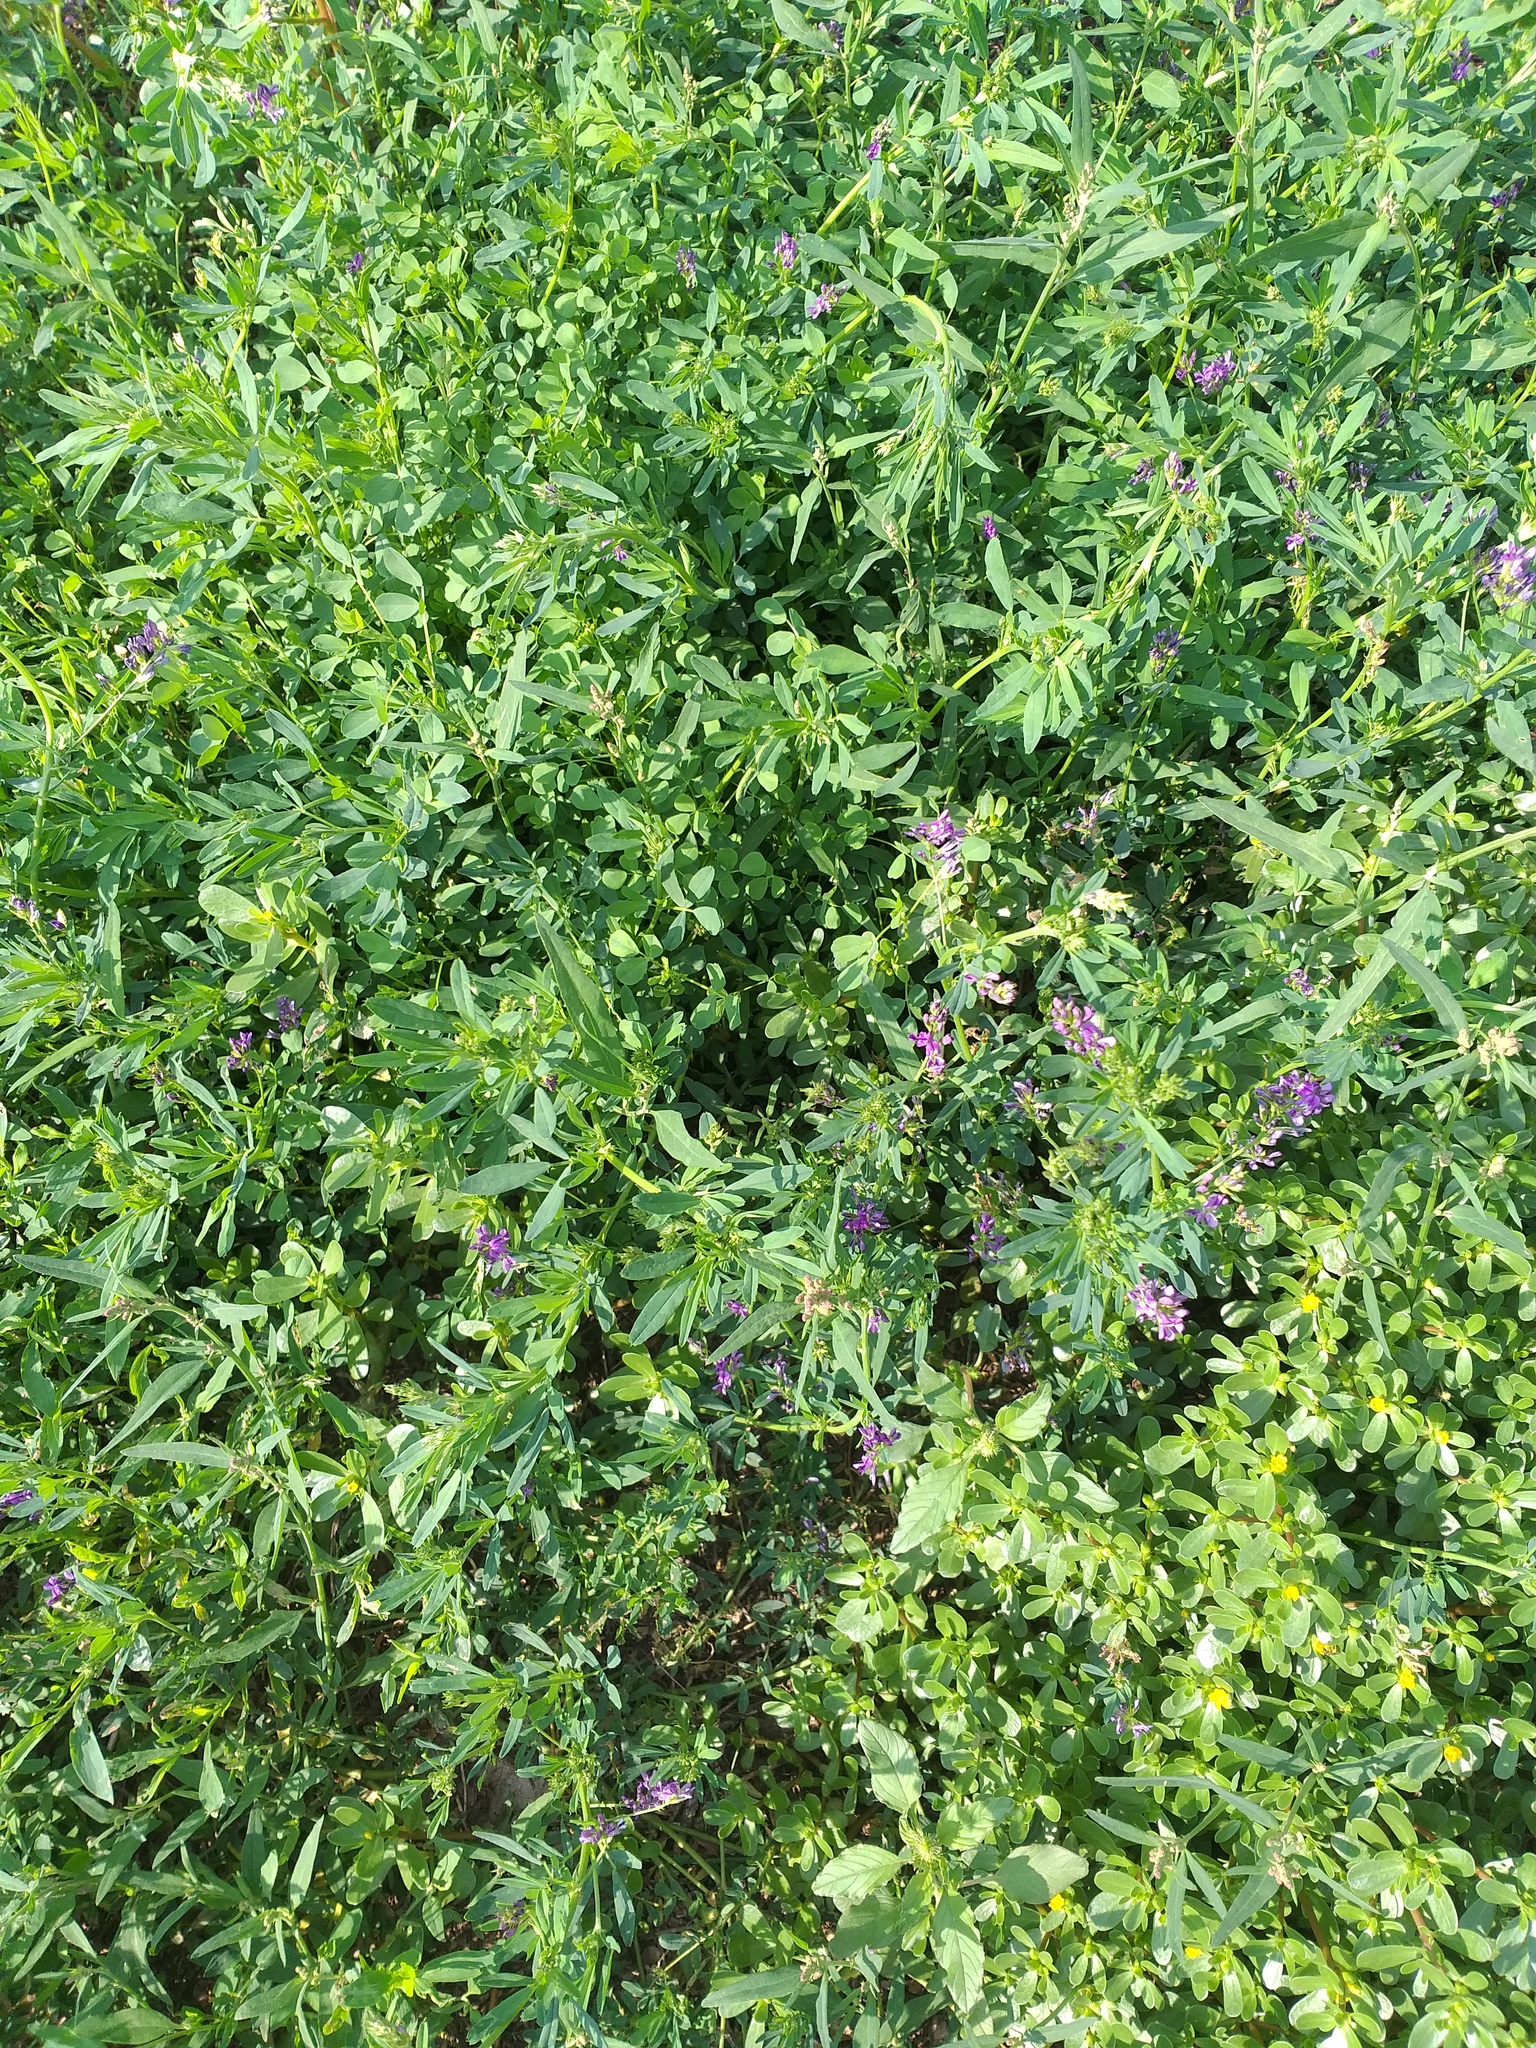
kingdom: Plantae
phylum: Tracheophyta
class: Magnoliopsida
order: Fabales
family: Fabaceae
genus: Medicago
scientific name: Medicago sativa
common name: Alfalfa
